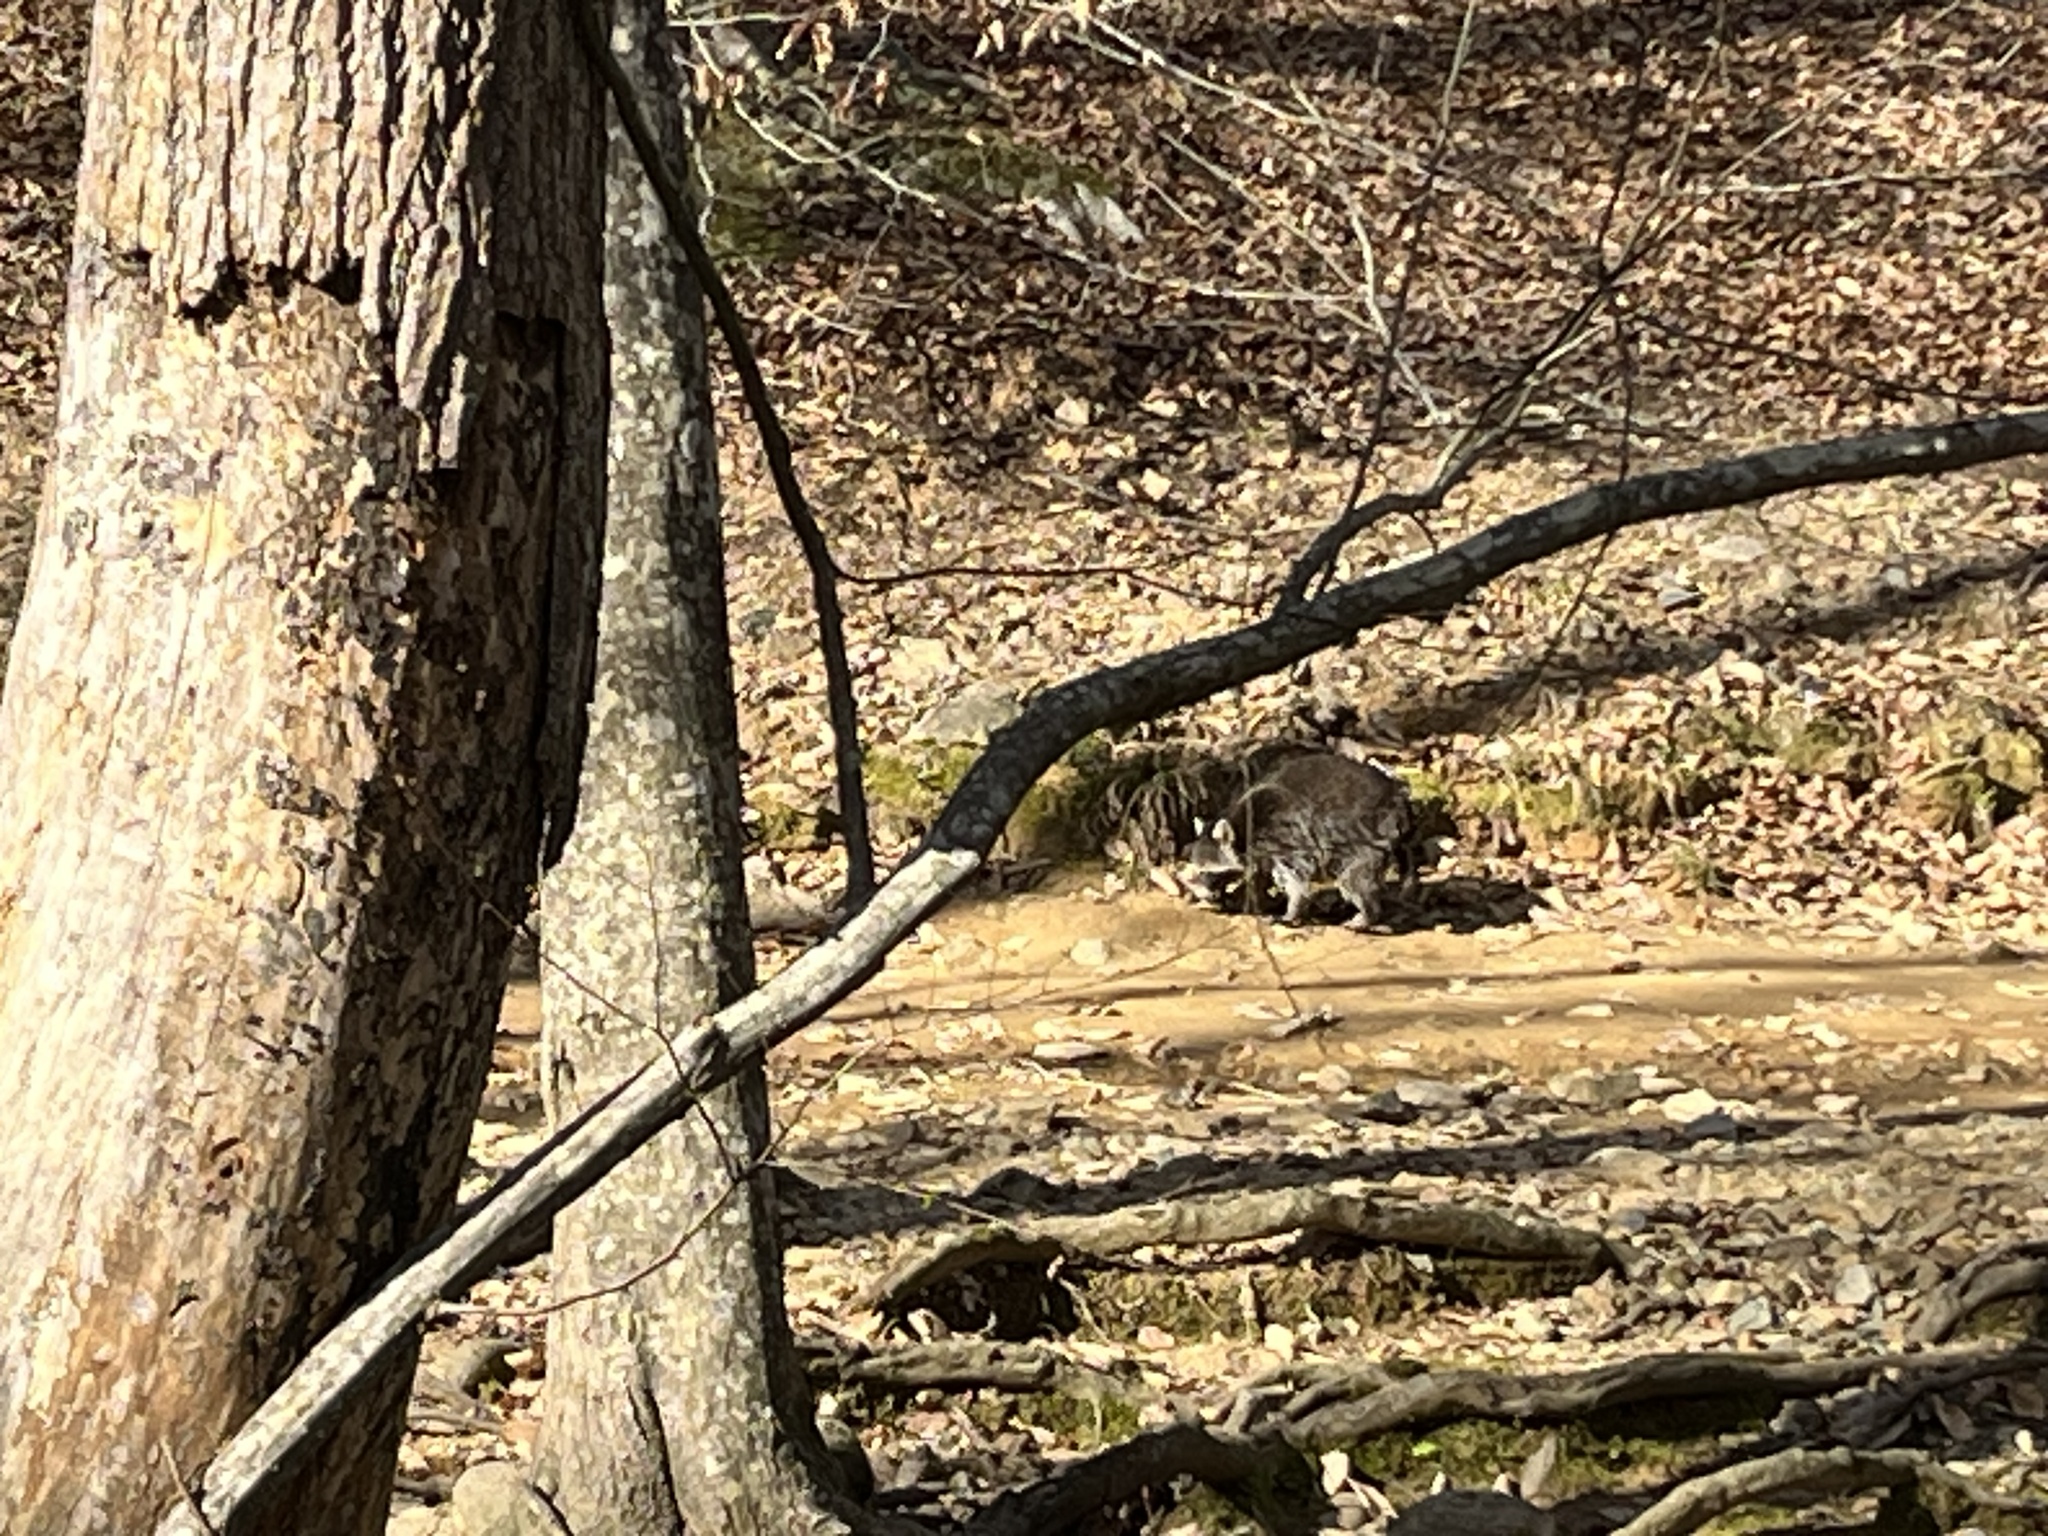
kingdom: Animalia
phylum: Chordata
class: Mammalia
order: Carnivora
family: Procyonidae
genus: Procyon
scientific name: Procyon lotor
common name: Raccoon
